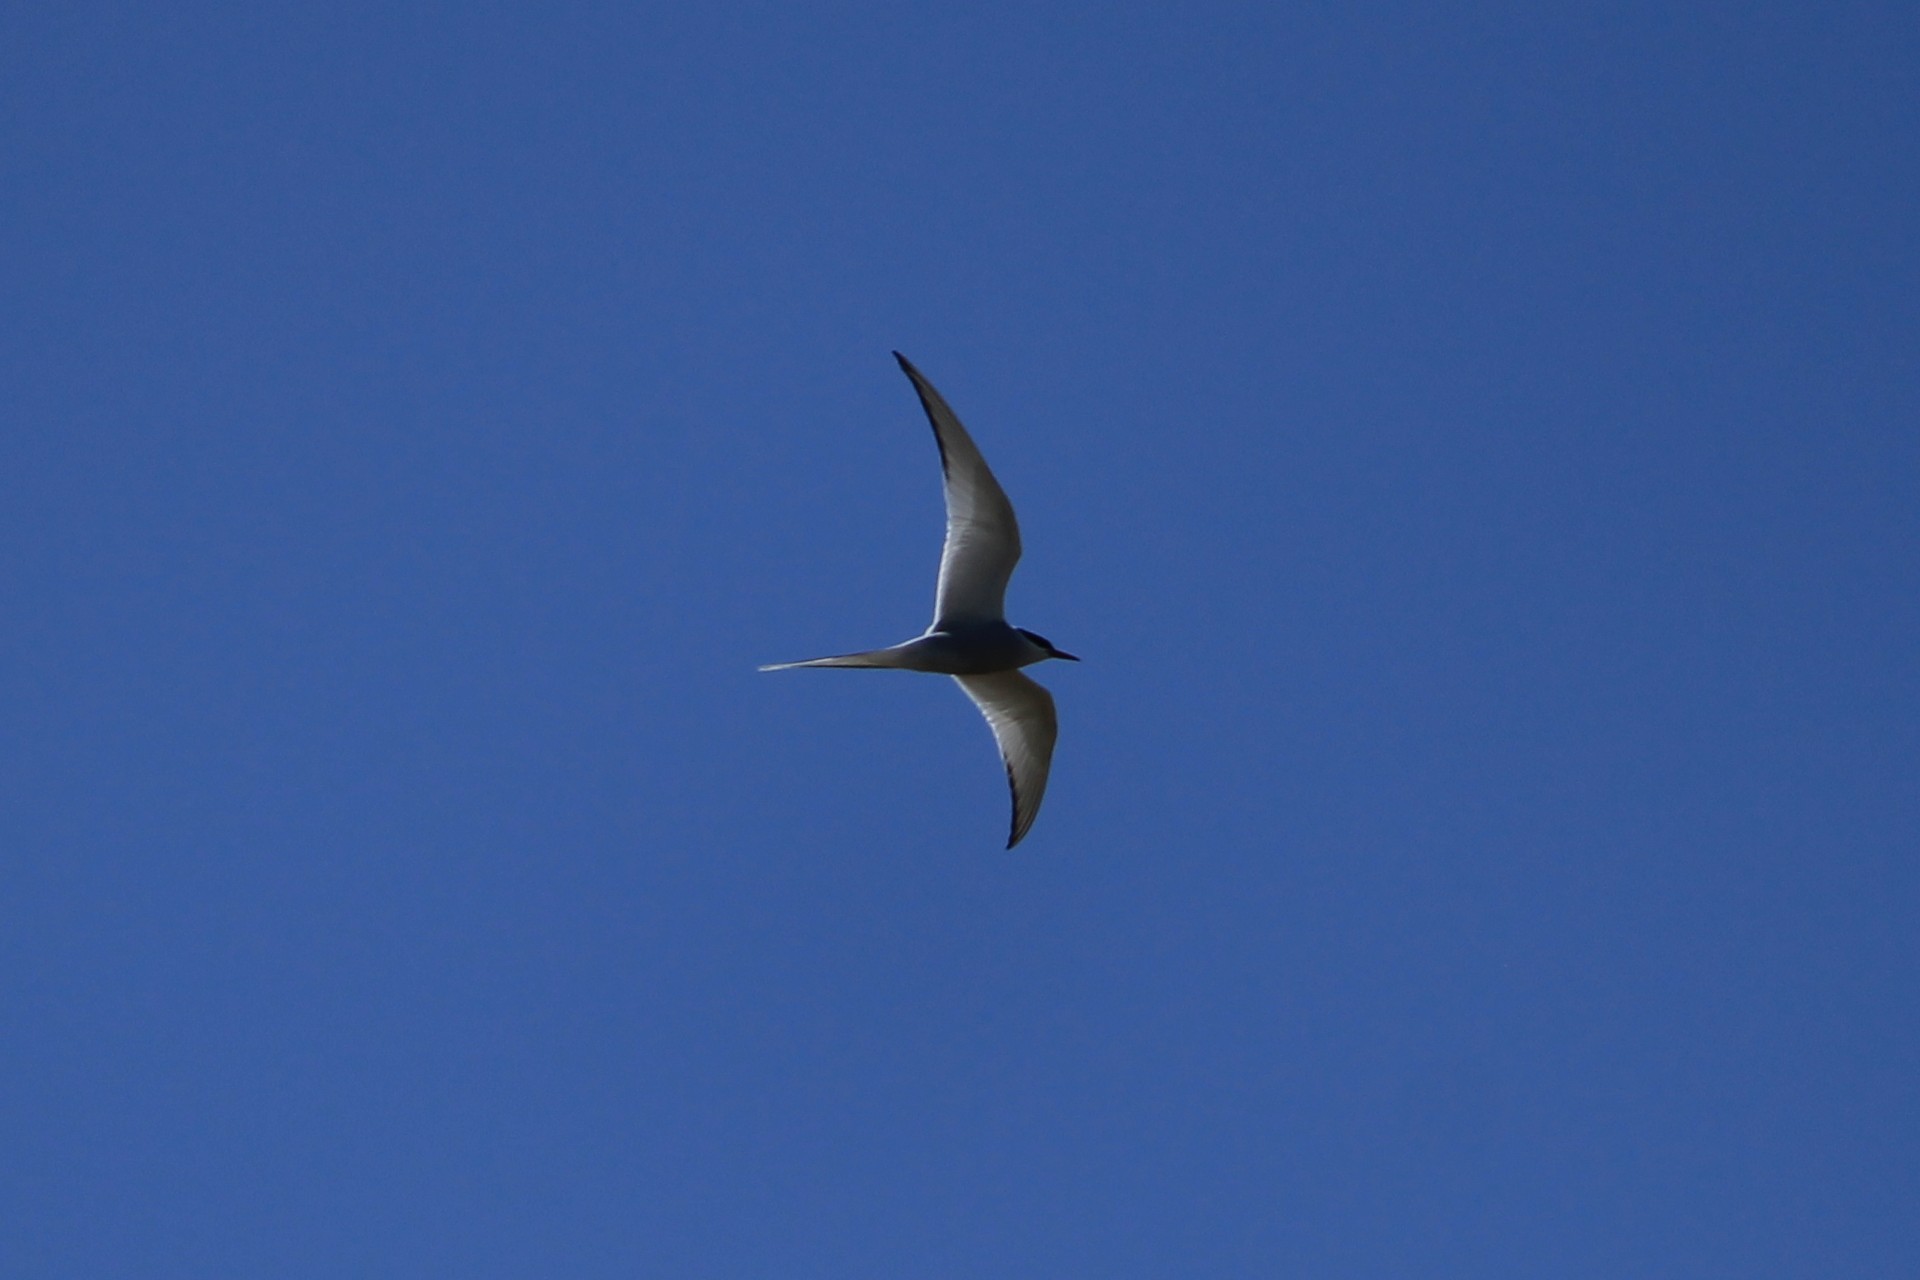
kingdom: Animalia
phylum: Chordata
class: Aves
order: Charadriiformes
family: Laridae
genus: Sterna
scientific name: Sterna paradisaea
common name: Arctic tern
